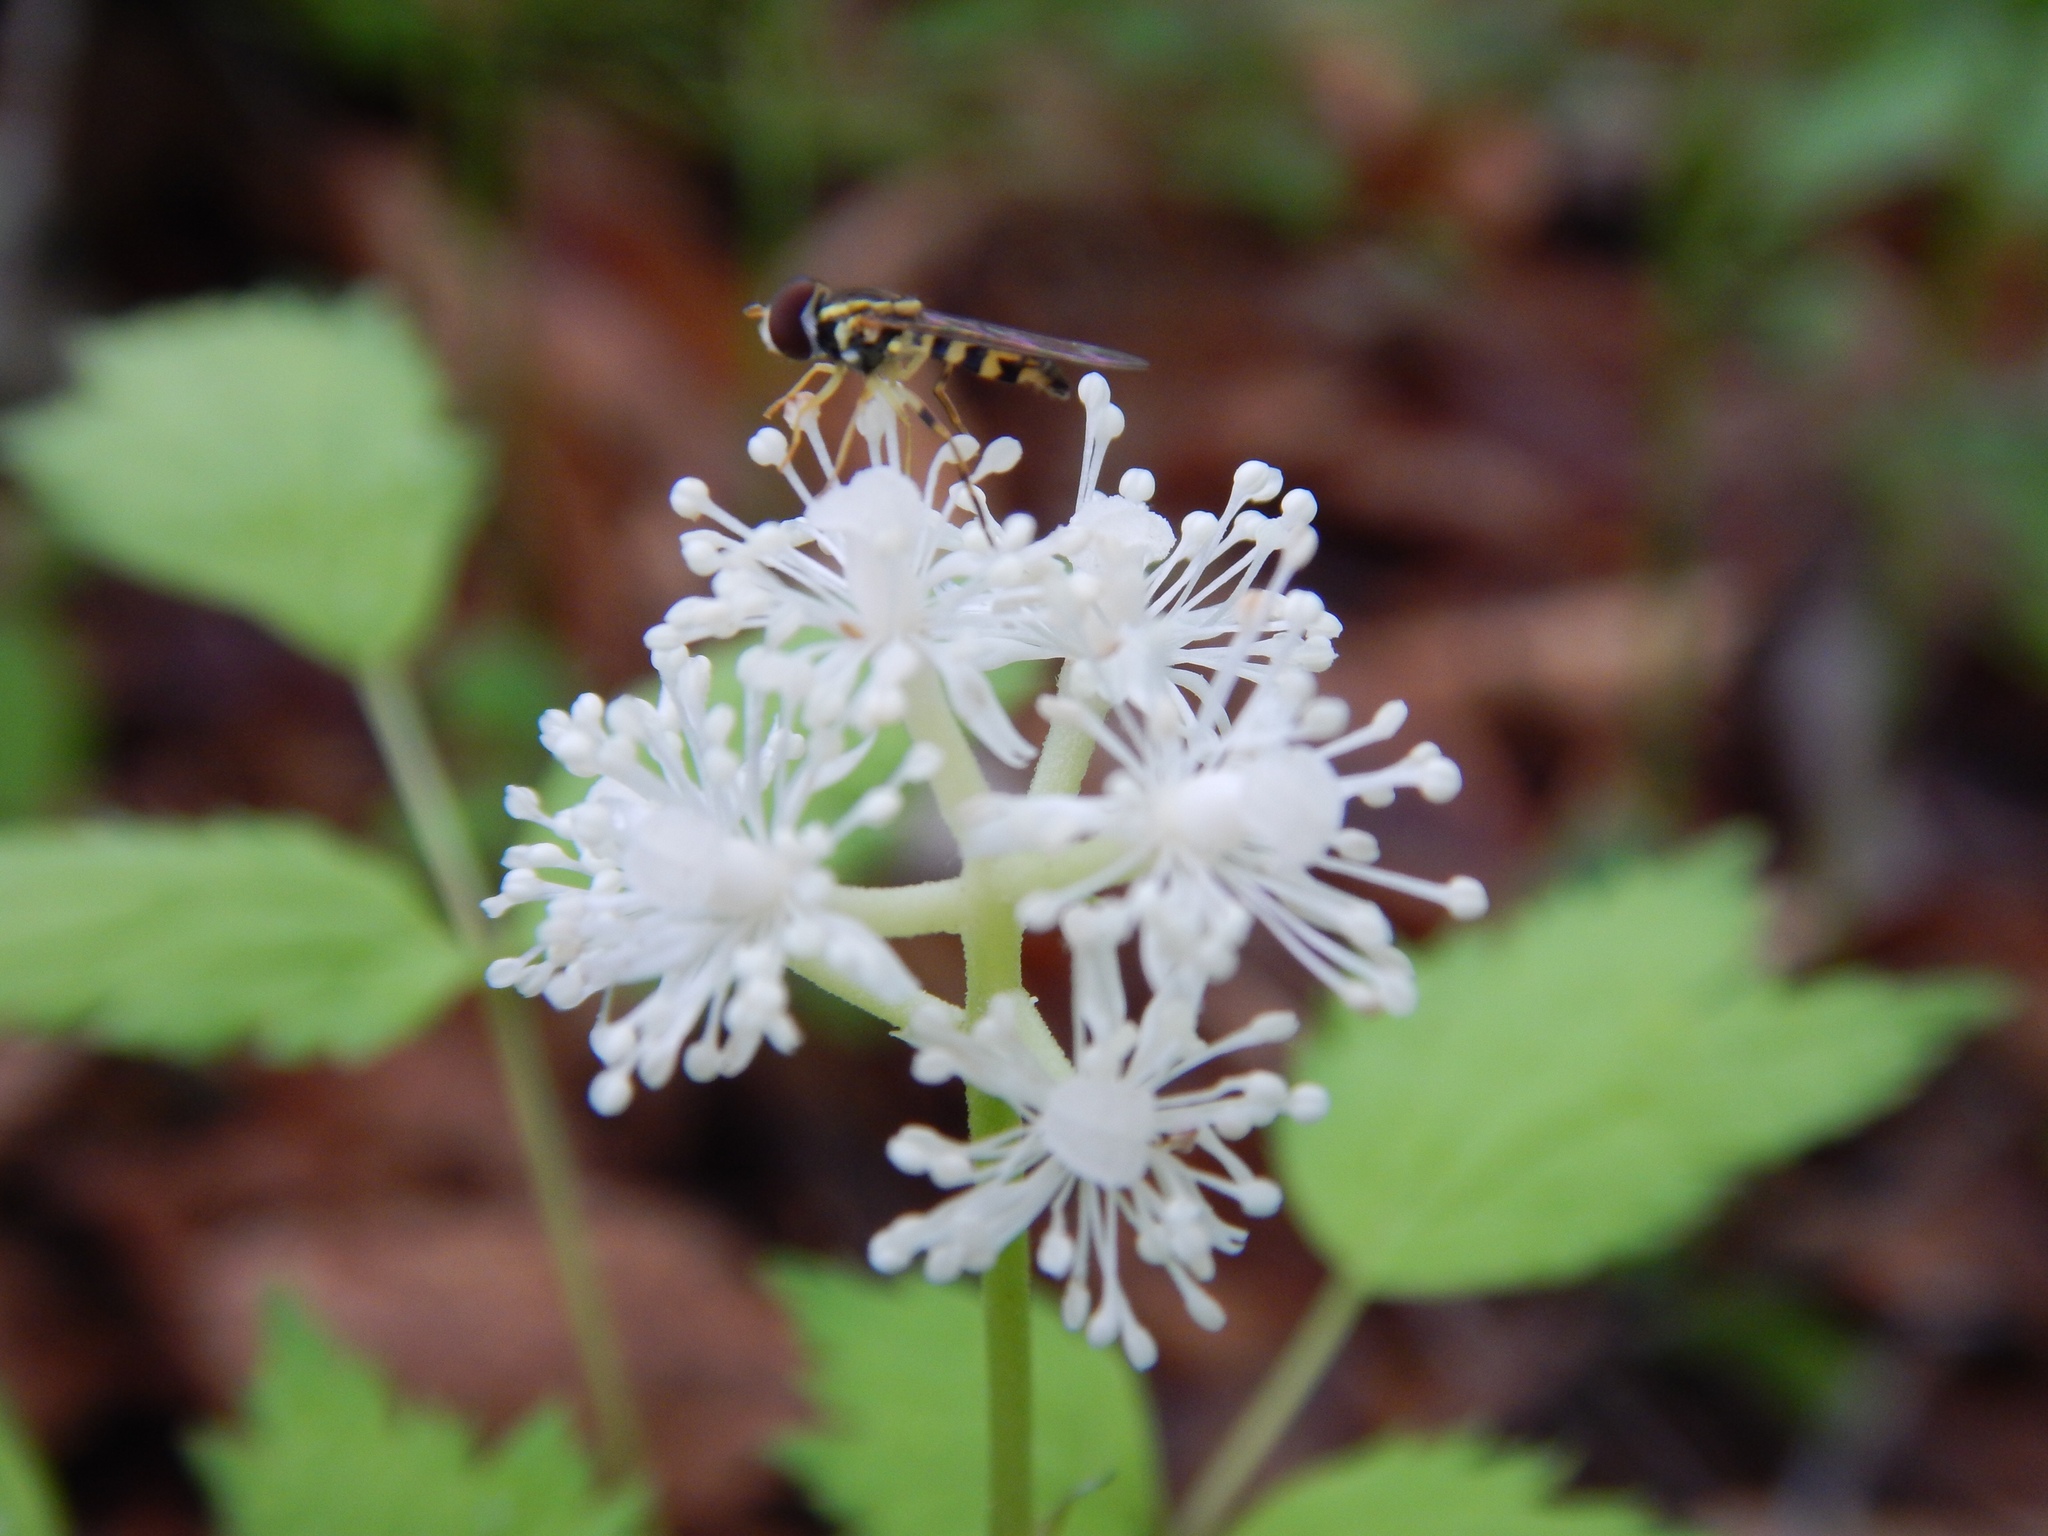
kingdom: Animalia
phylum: Arthropoda
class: Insecta
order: Diptera
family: Syrphidae
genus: Toxomerus
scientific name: Toxomerus geminatus
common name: Eastern calligrapher
